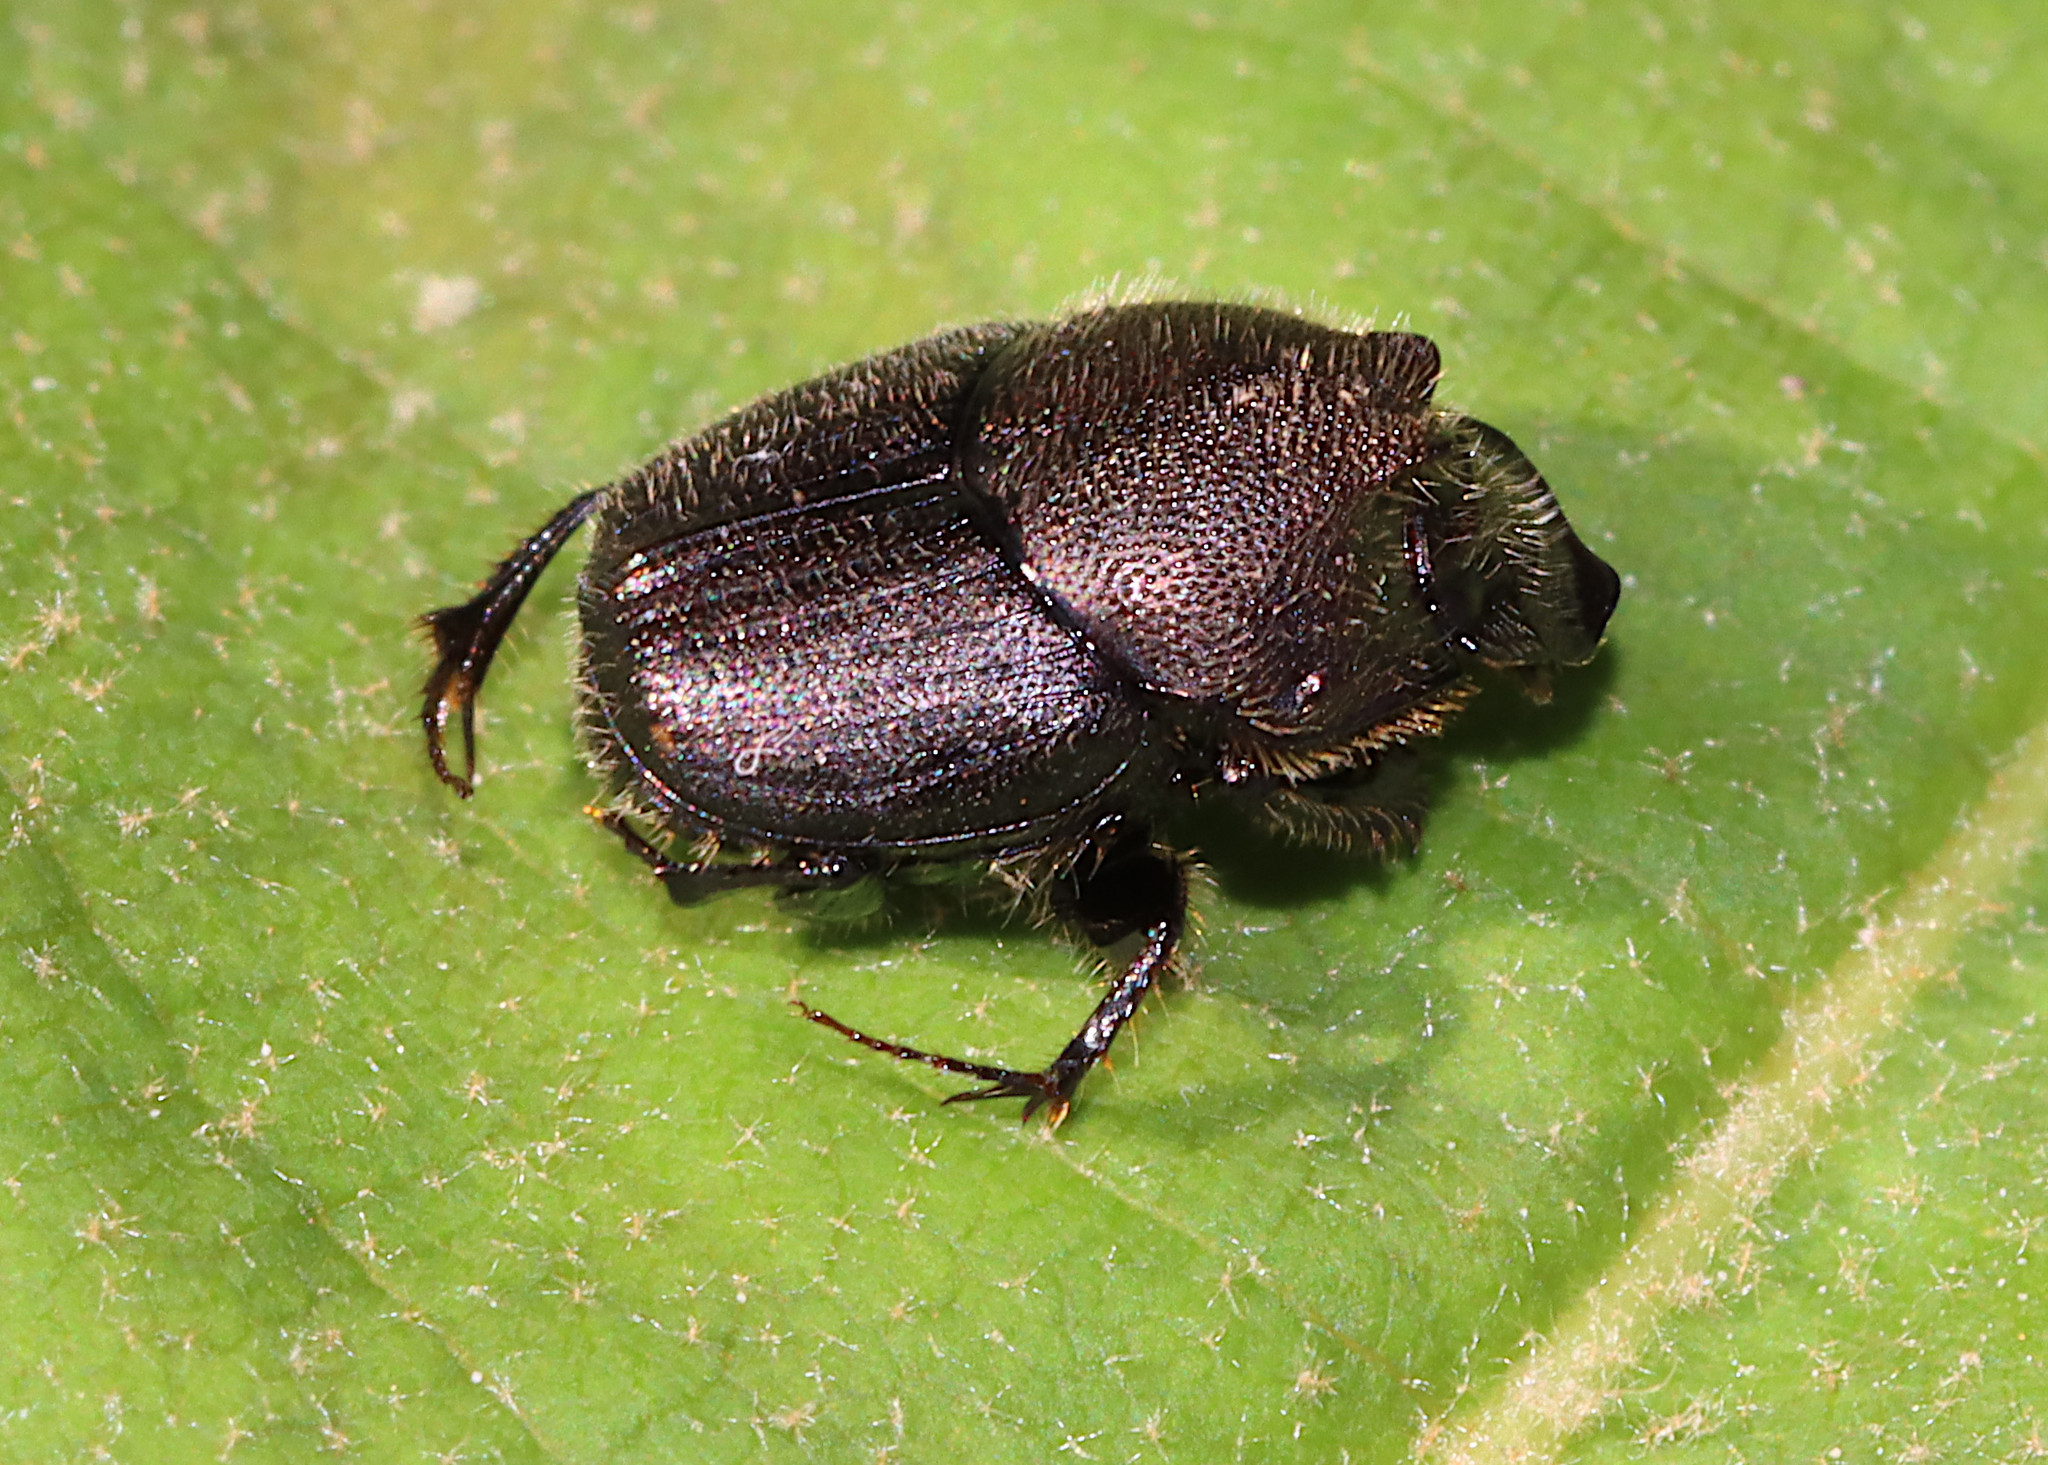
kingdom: Animalia
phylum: Arthropoda
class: Insecta
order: Coleoptera
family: Scarabaeidae
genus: Onthophagus
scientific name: Onthophagus hecate
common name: Scooped scarab
